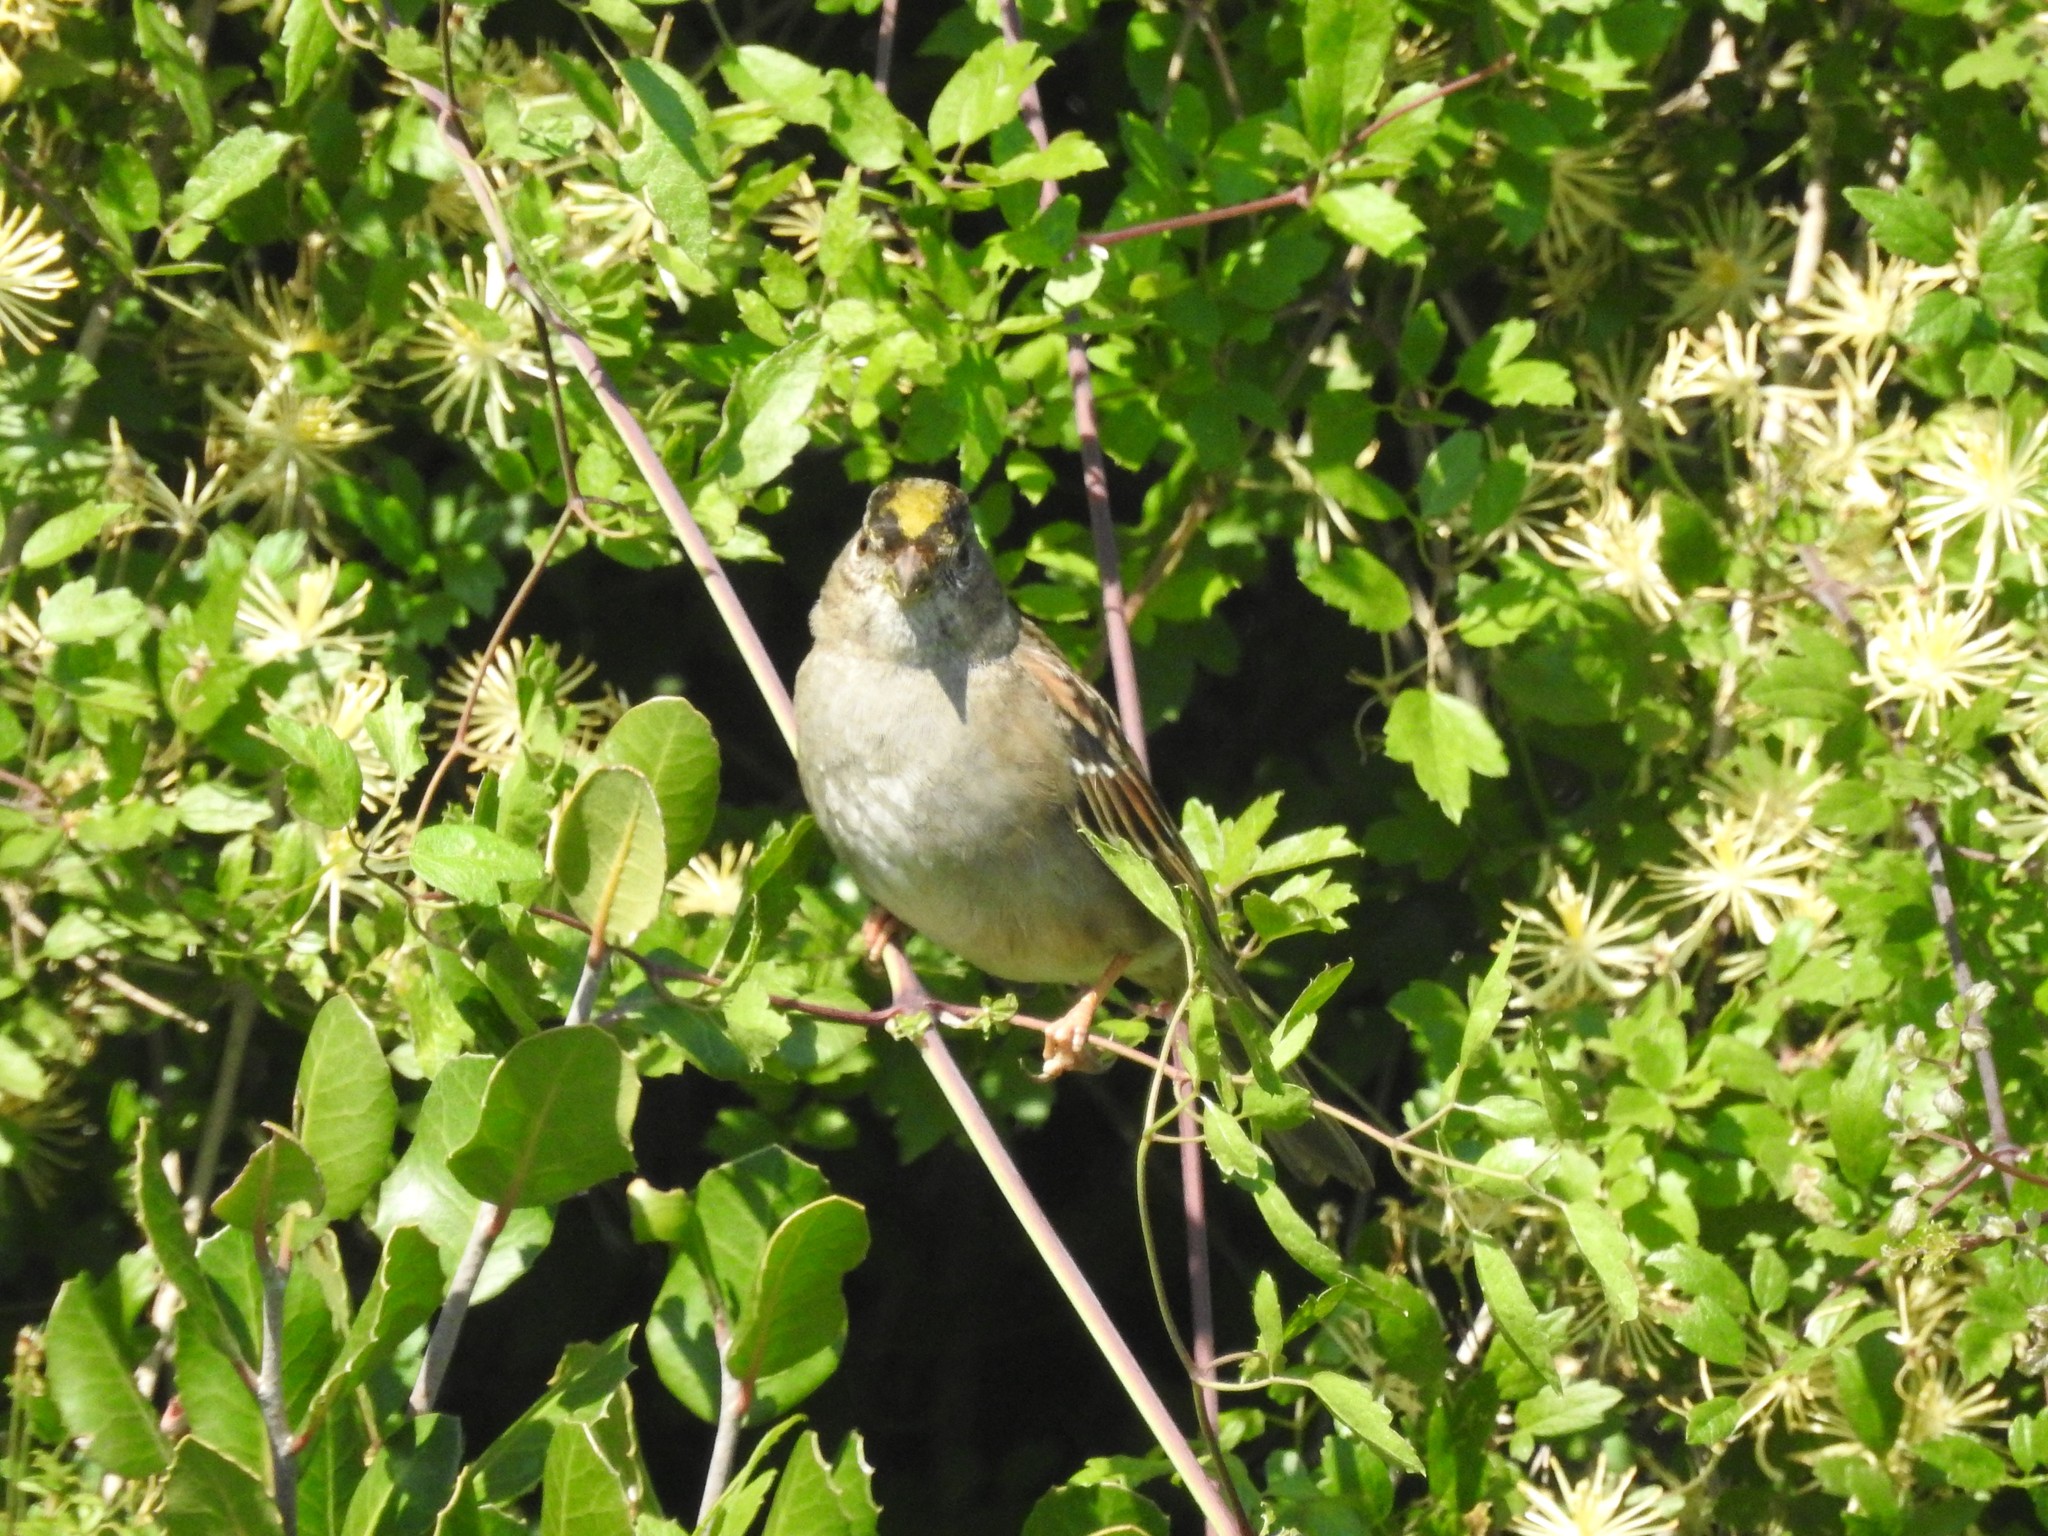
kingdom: Animalia
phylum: Chordata
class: Aves
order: Passeriformes
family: Passerellidae
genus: Zonotrichia
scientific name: Zonotrichia atricapilla
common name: Golden-crowned sparrow
